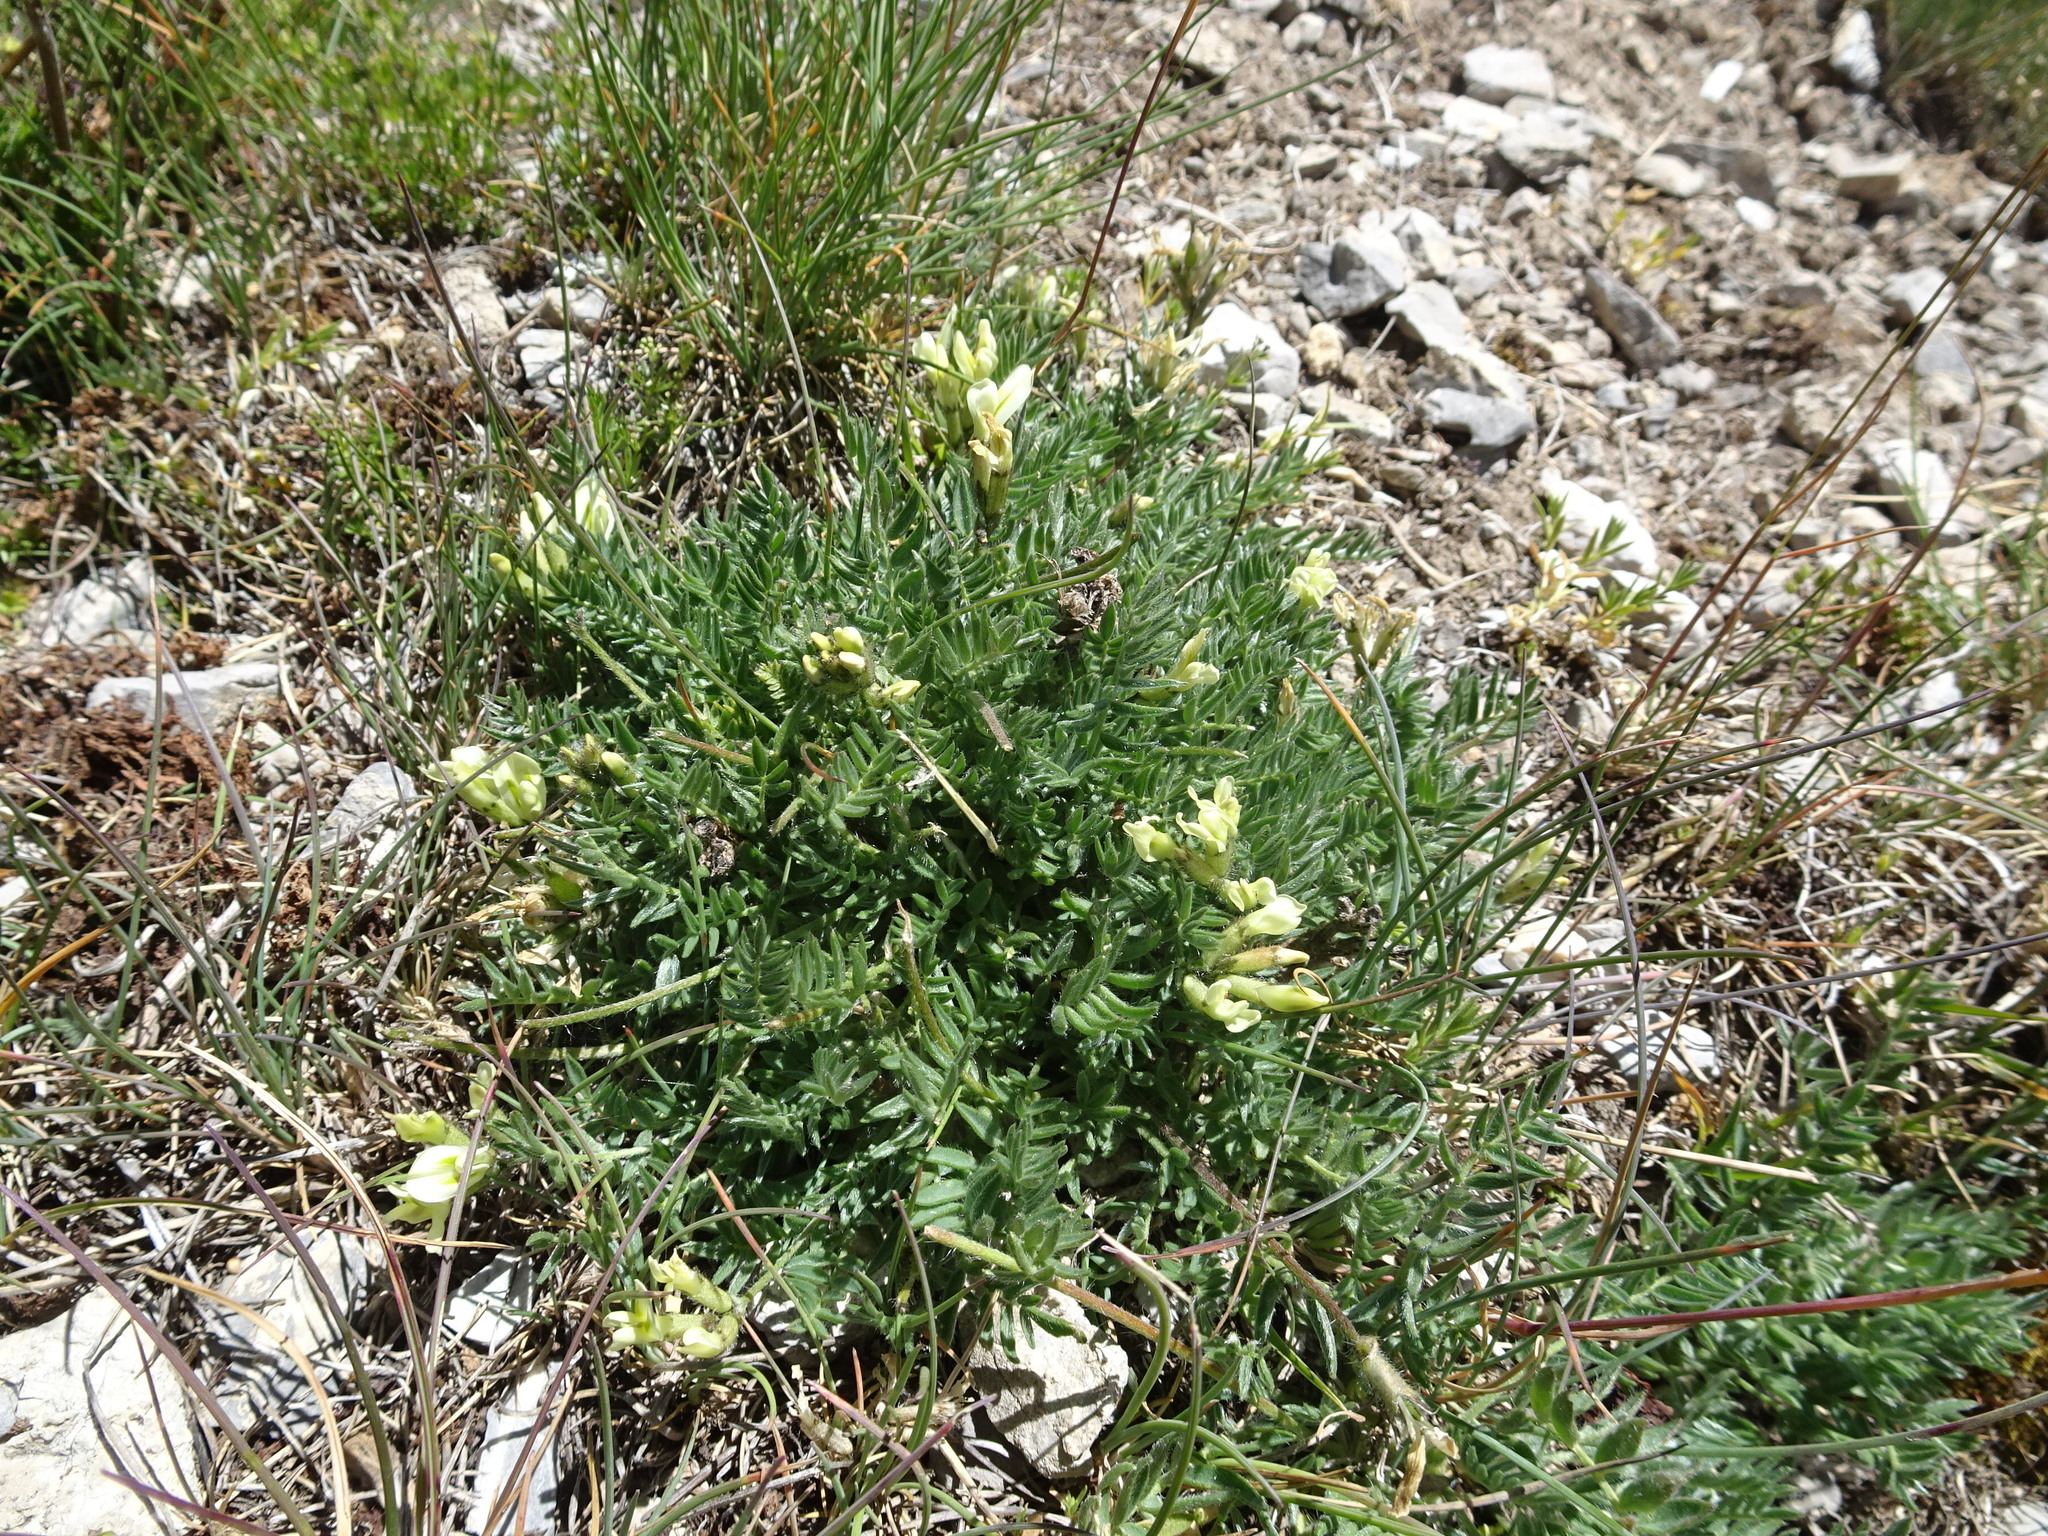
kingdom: Plantae
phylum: Tracheophyta
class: Magnoliopsida
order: Fabales
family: Fabaceae
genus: Oxytropis
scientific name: Oxytropis campestris
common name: Field locoweed
